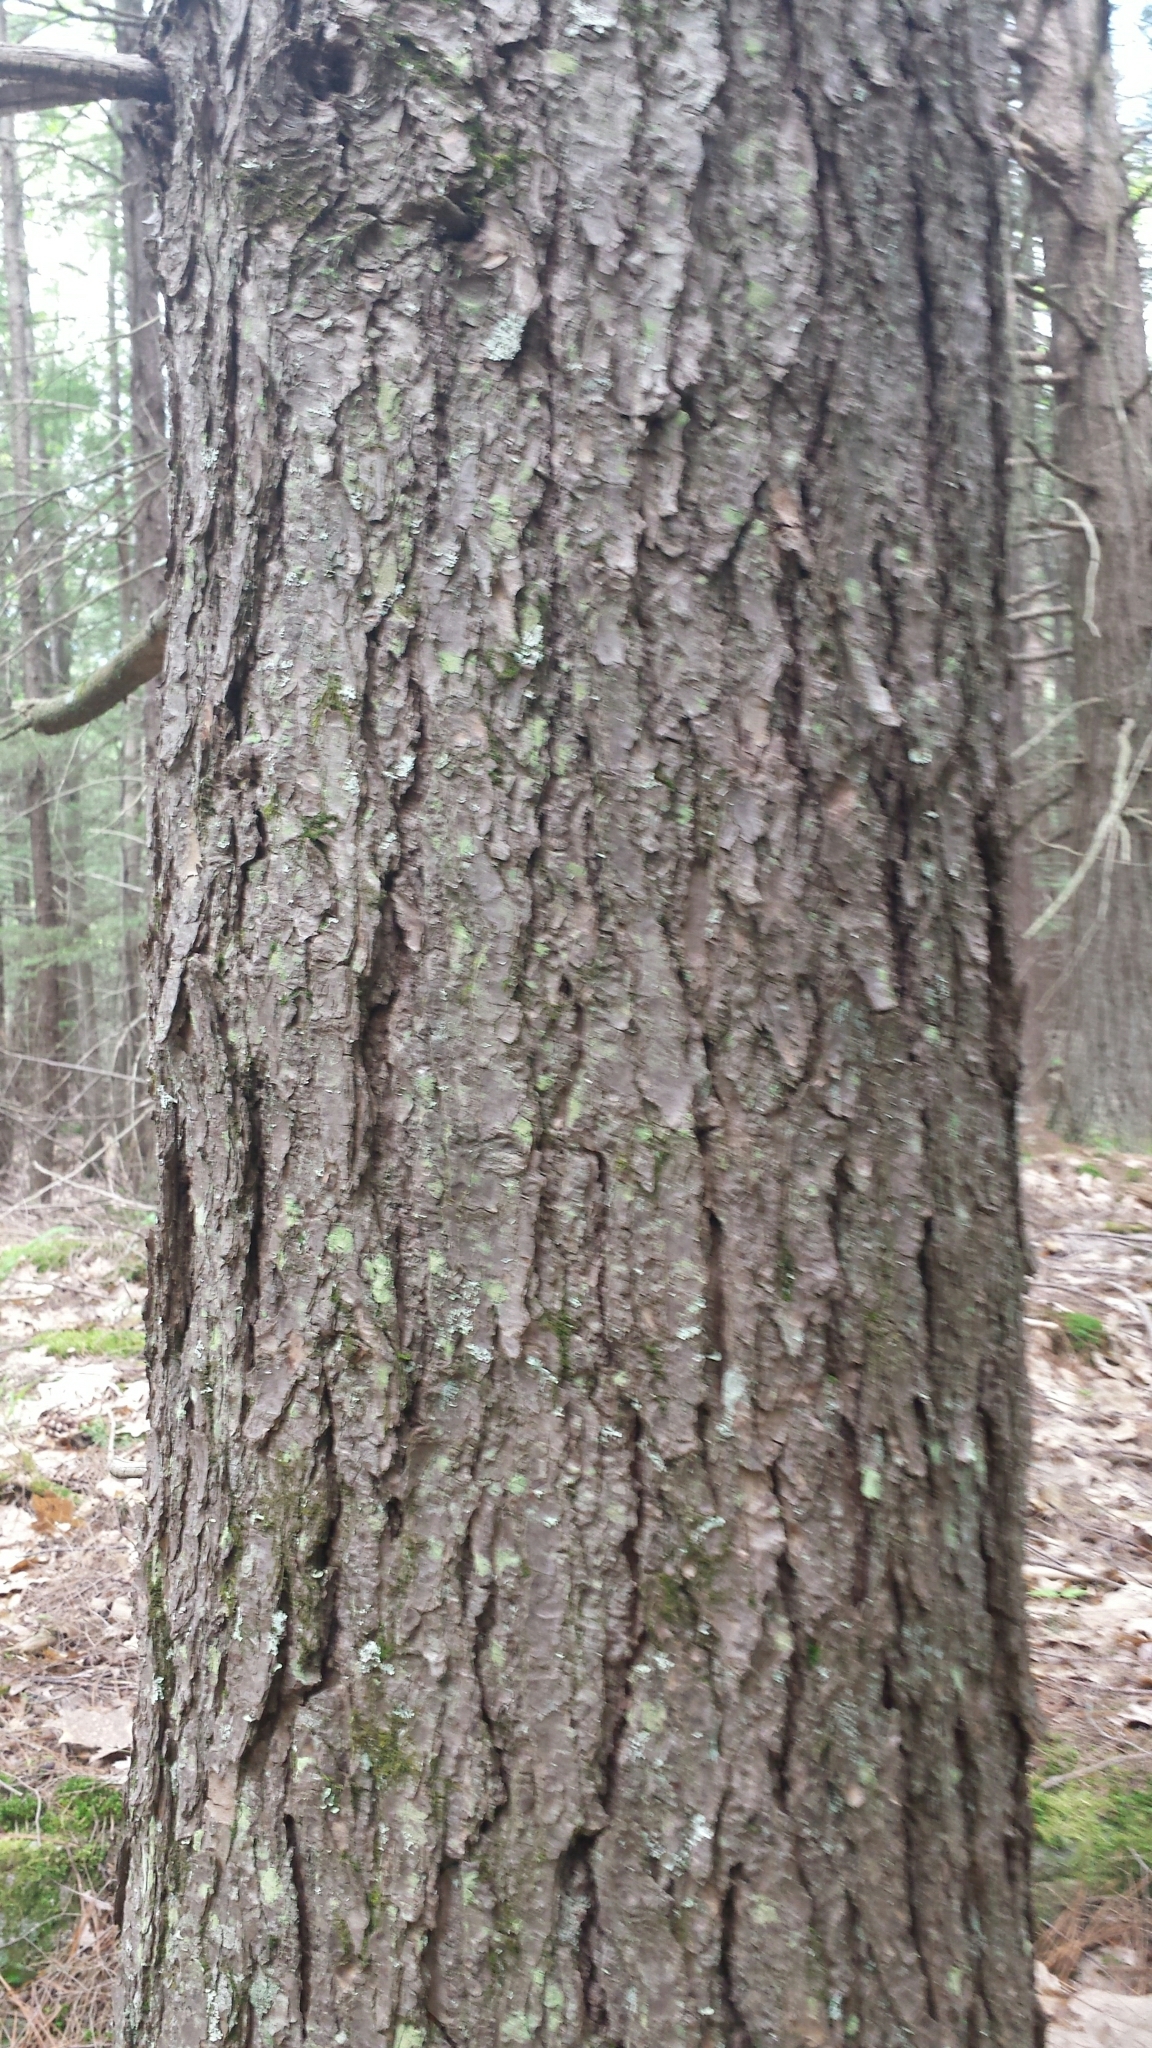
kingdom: Plantae
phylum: Tracheophyta
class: Pinopsida
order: Pinales
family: Pinaceae
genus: Tsuga
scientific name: Tsuga canadensis
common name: Eastern hemlock
